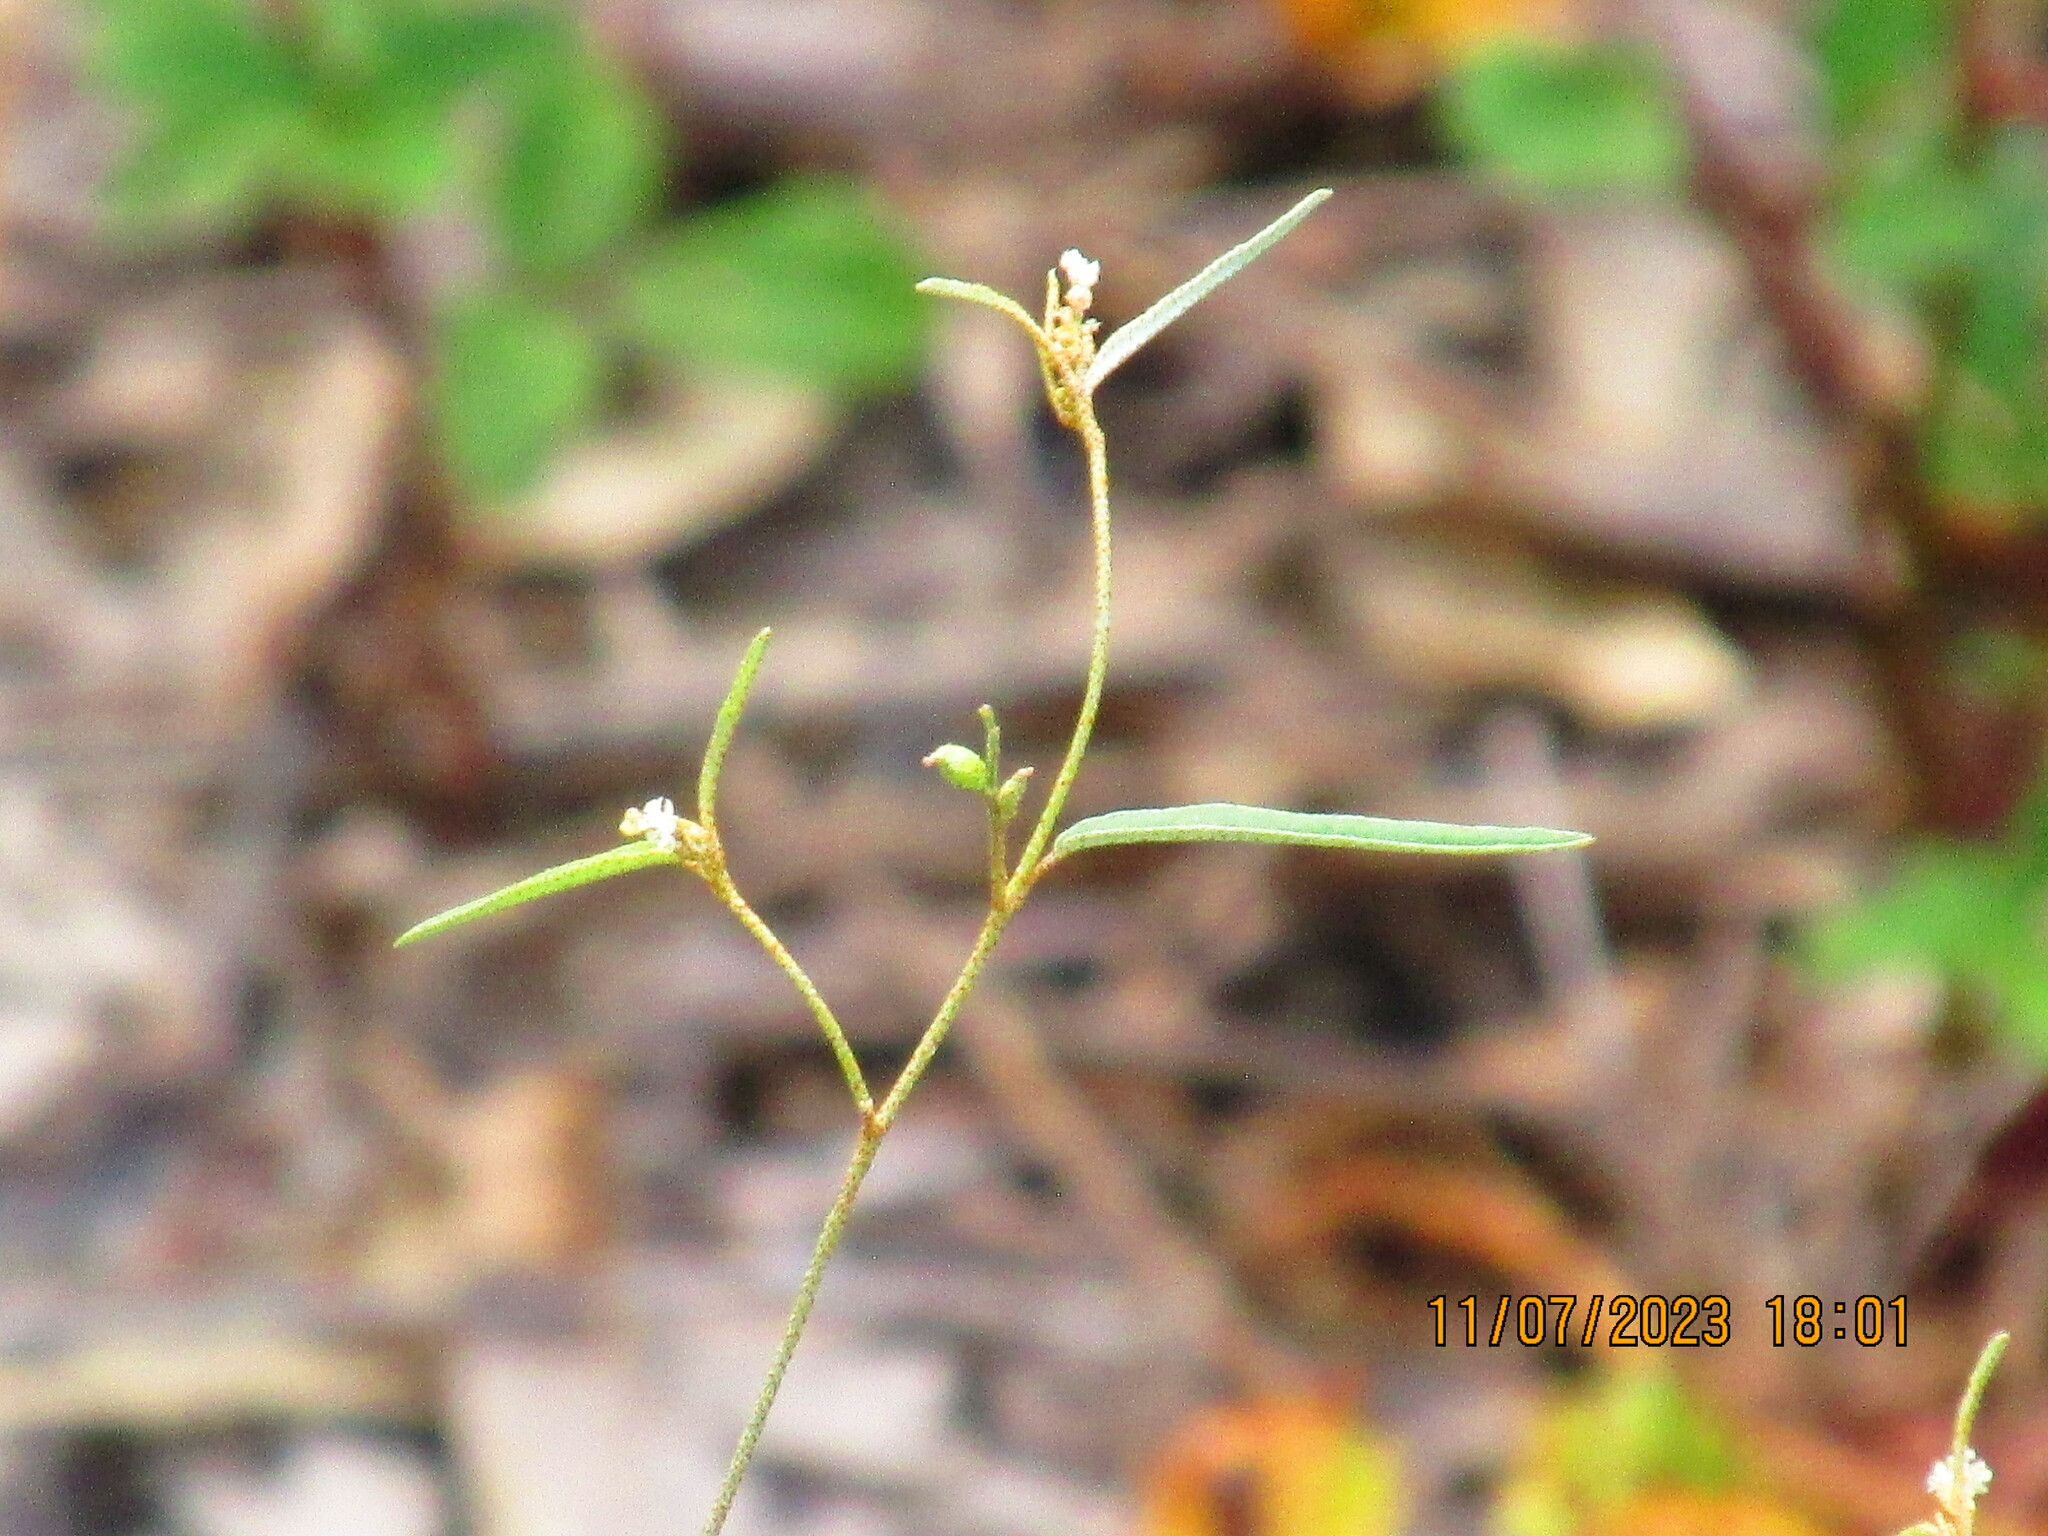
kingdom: Plantae
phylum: Tracheophyta
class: Magnoliopsida
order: Malpighiales
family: Euphorbiaceae
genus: Croton
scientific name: Croton michauxii
